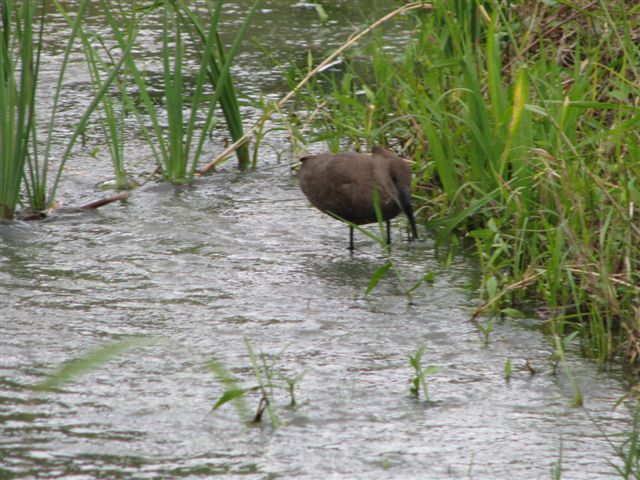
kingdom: Animalia
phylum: Chordata
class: Aves
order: Pelecaniformes
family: Scopidae
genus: Scopus
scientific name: Scopus umbretta
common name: Hamerkop
